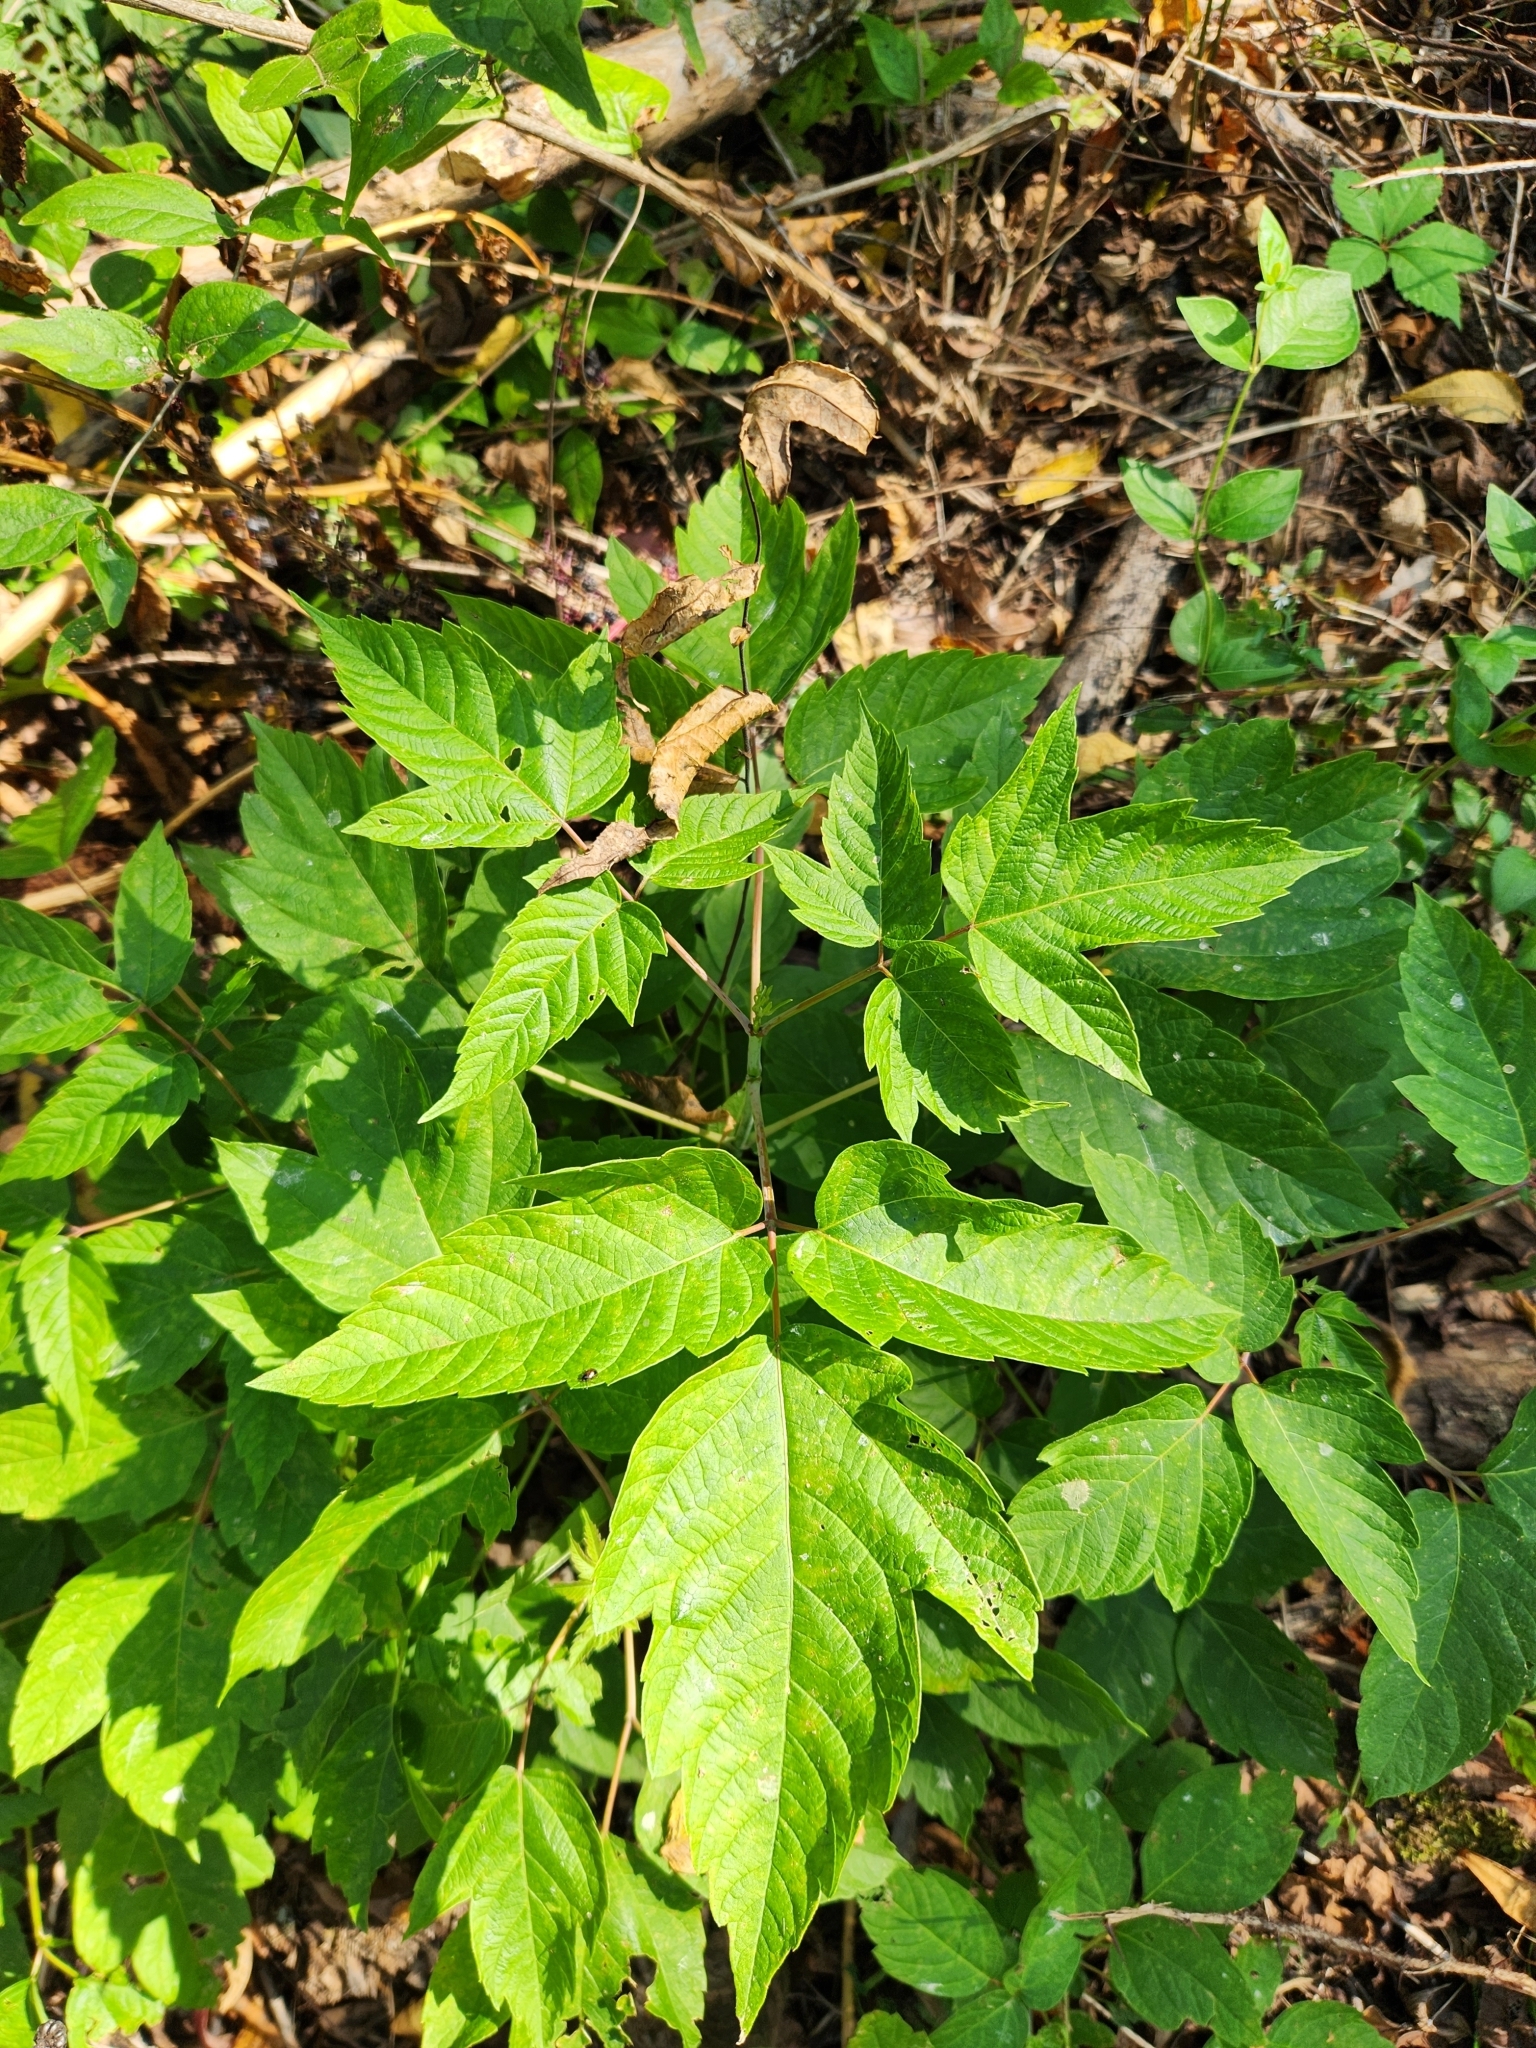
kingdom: Plantae
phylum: Tracheophyta
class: Magnoliopsida
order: Sapindales
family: Anacardiaceae
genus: Toxicodendron
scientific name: Toxicodendron radicans
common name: Poison ivy
